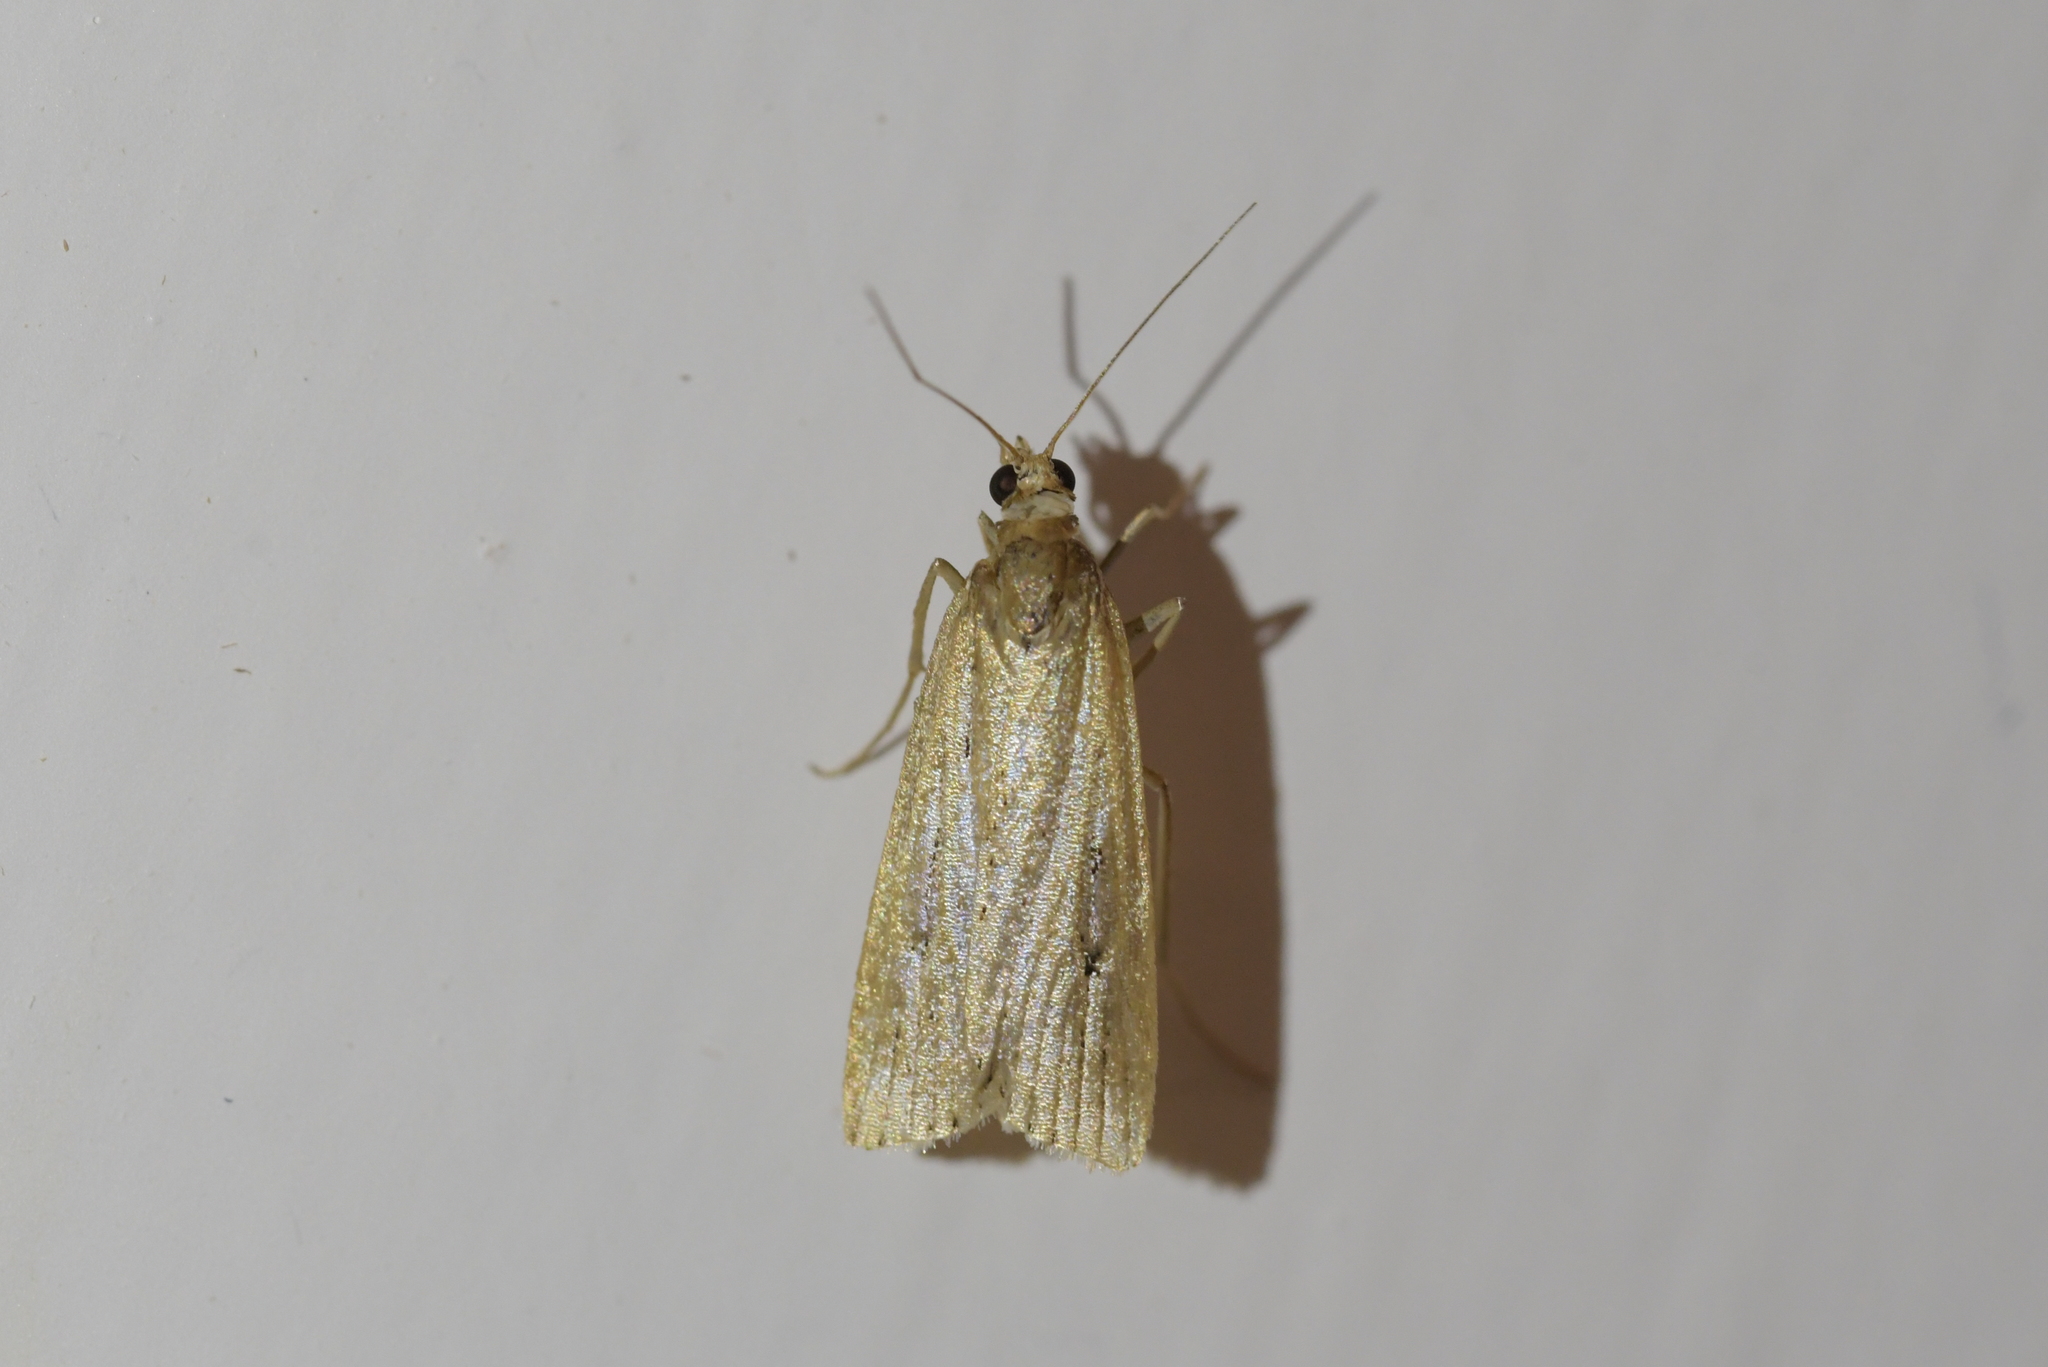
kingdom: Animalia
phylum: Arthropoda
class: Insecta
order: Lepidoptera
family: Crambidae
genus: Eudonia
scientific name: Eudonia sabulosella
